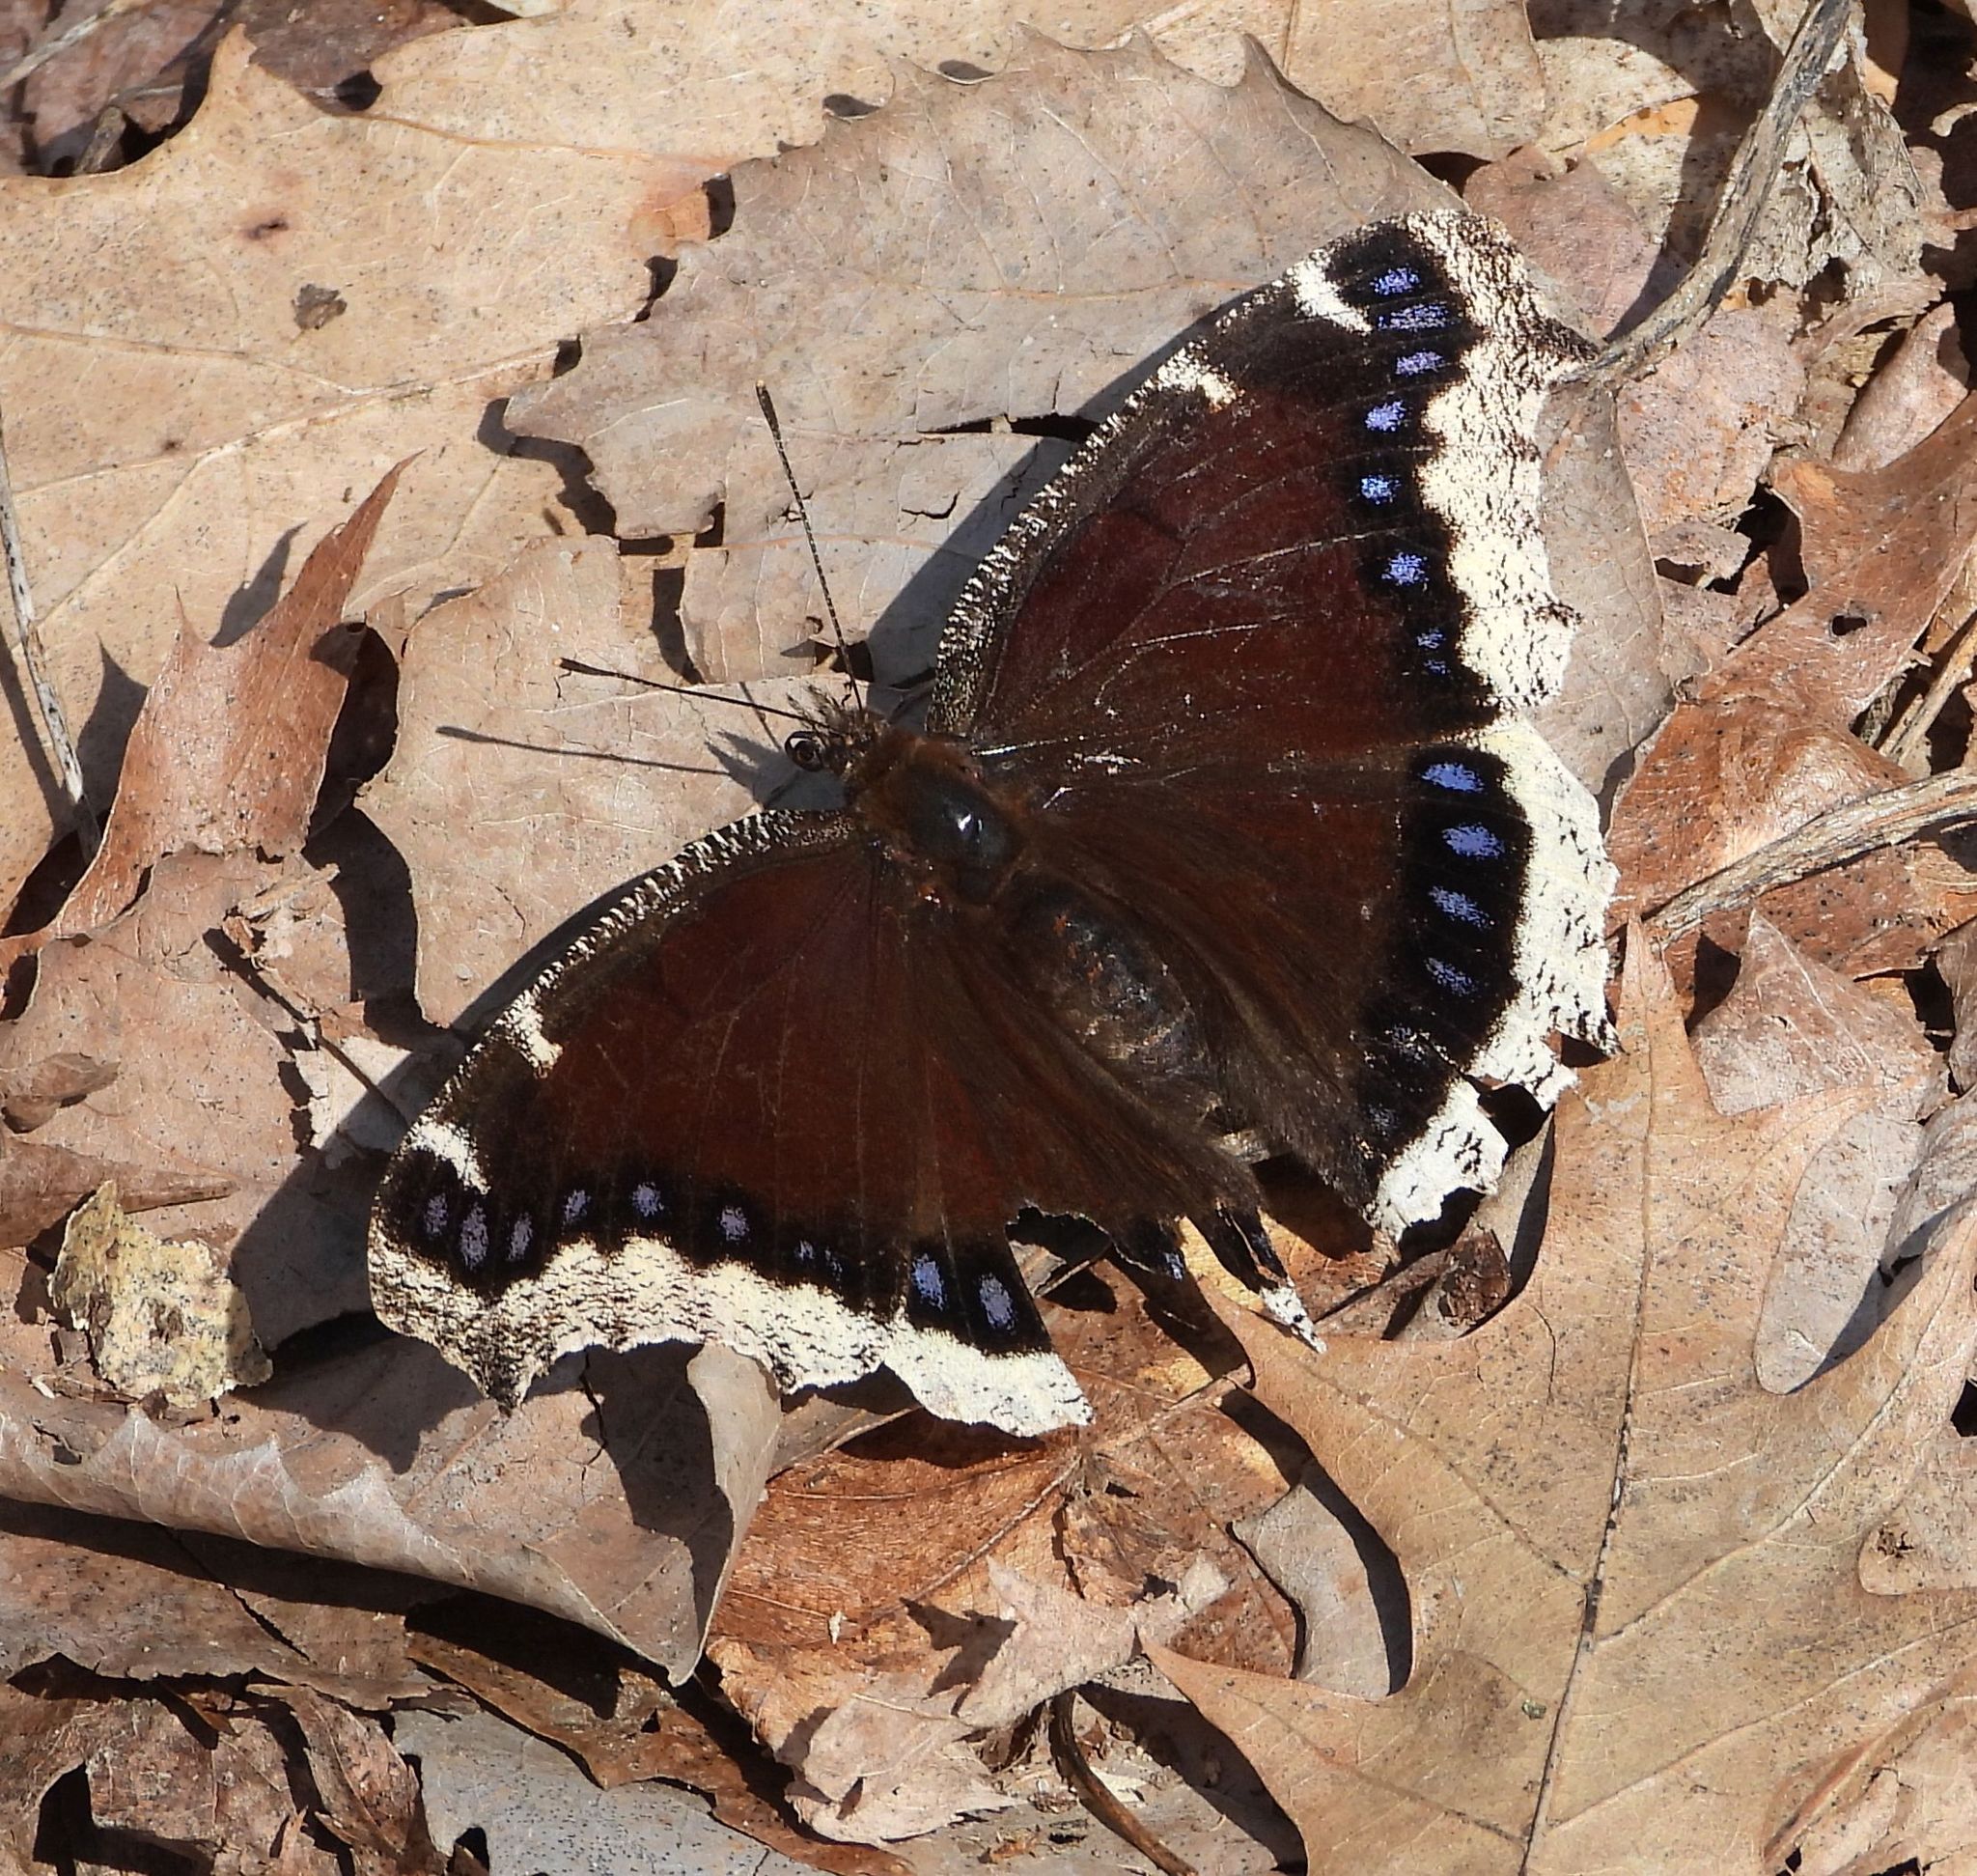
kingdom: Animalia
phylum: Arthropoda
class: Insecta
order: Lepidoptera
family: Nymphalidae
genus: Nymphalis
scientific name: Nymphalis antiopa
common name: Camberwell beauty
